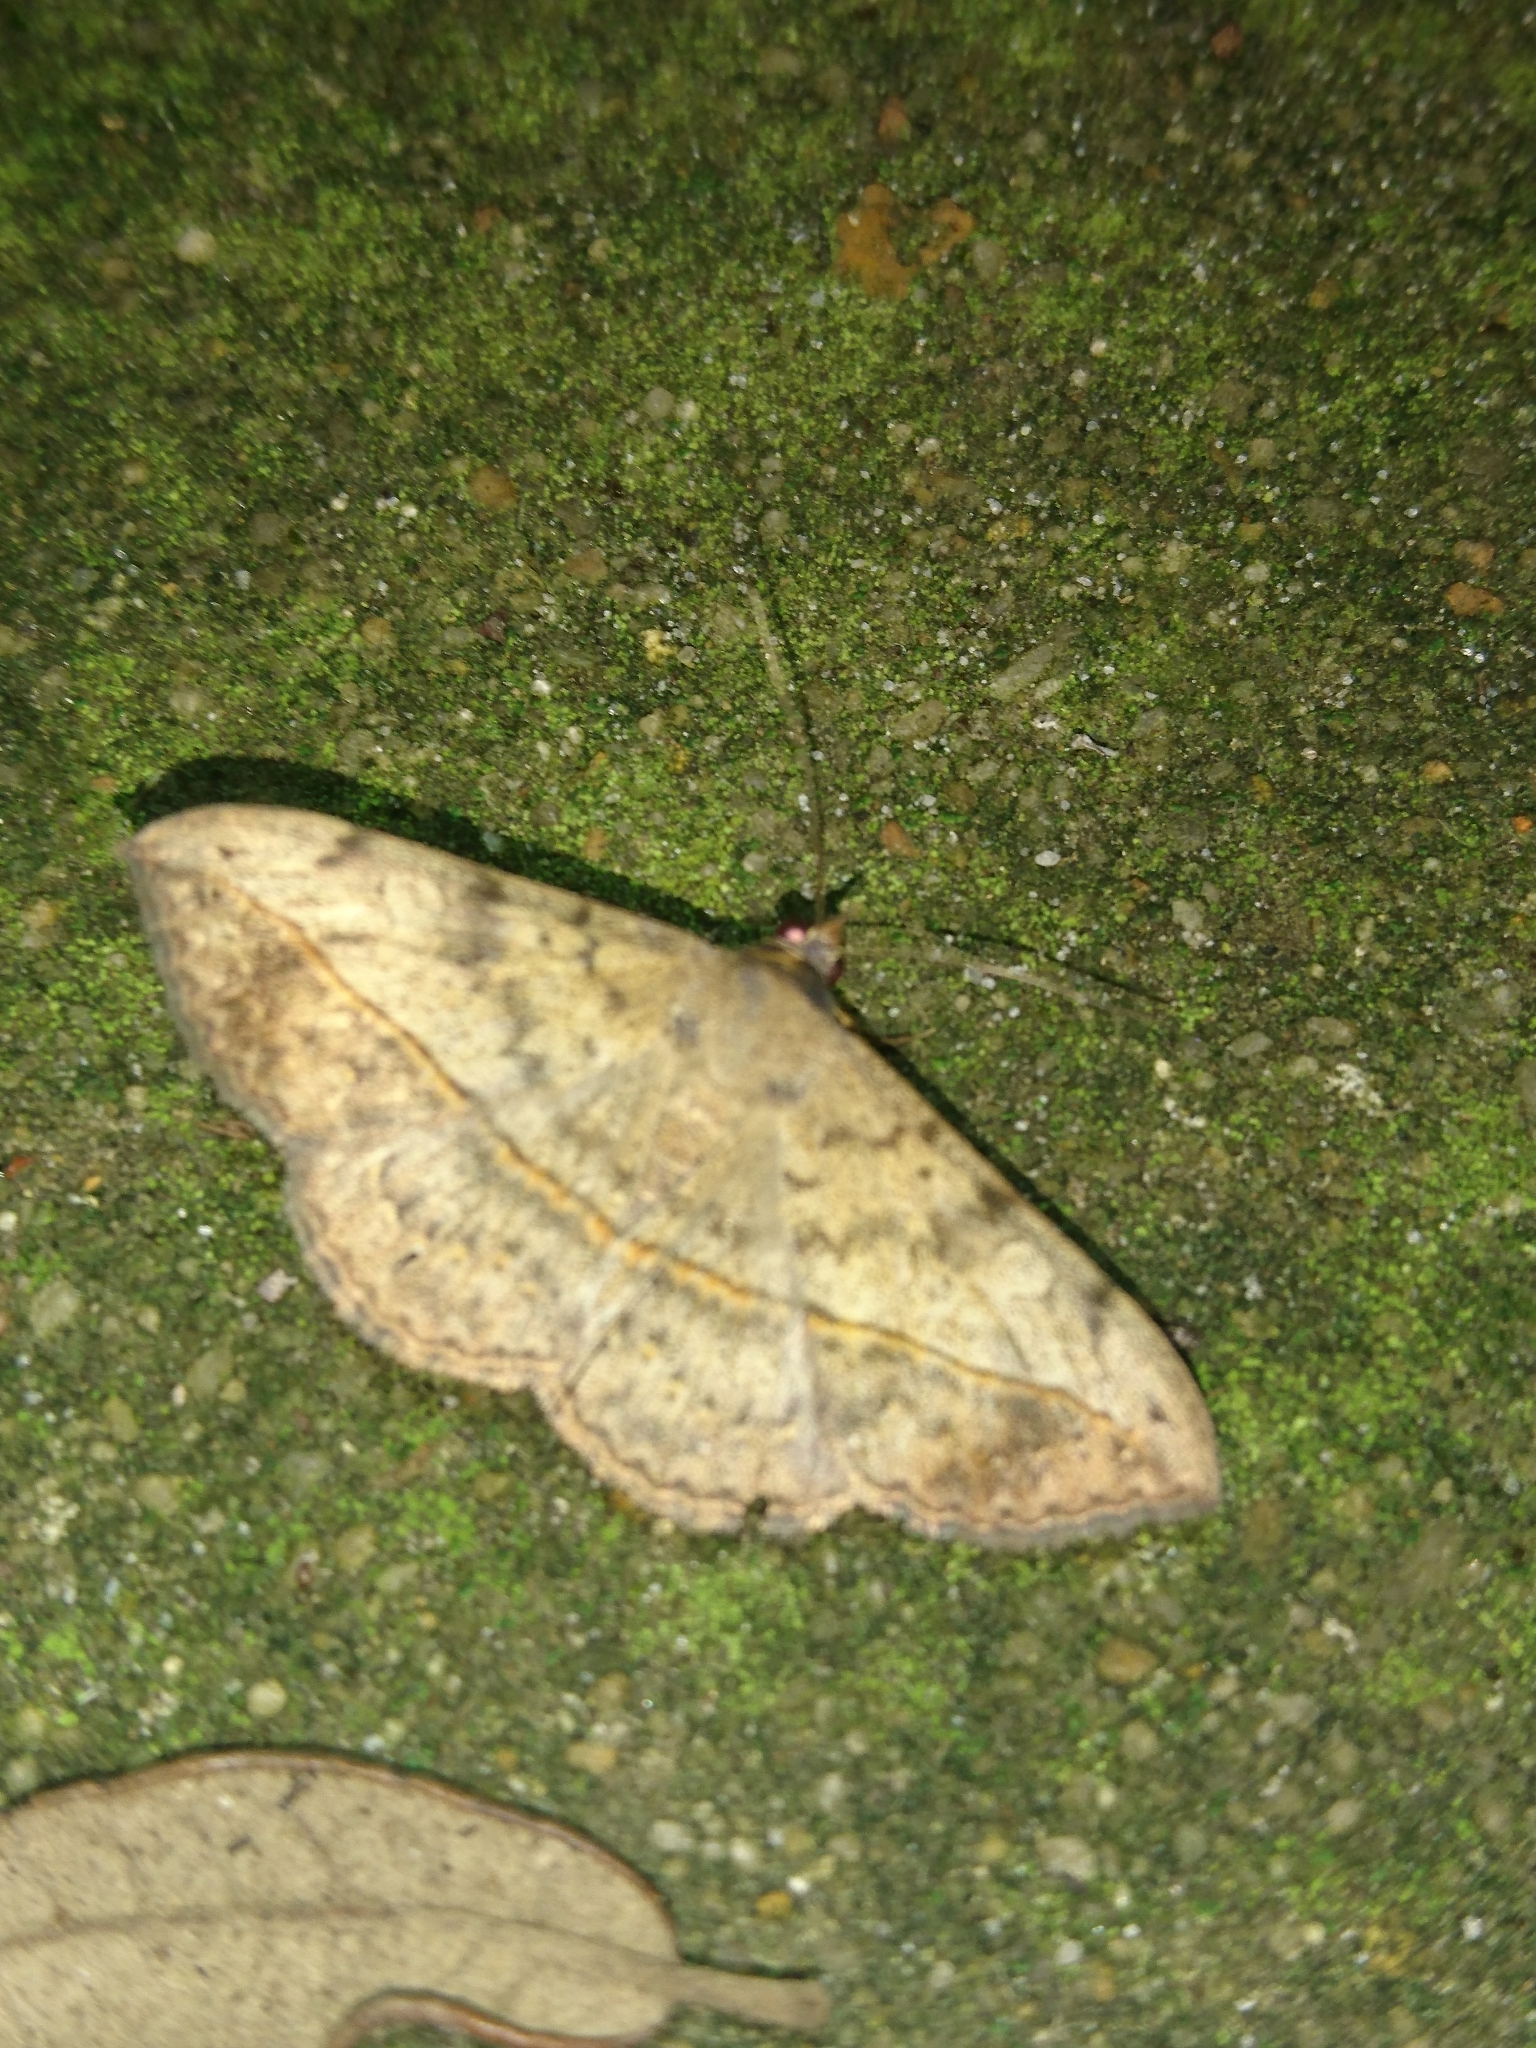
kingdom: Animalia
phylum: Arthropoda
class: Insecta
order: Lepidoptera
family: Erebidae
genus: Anticarsia
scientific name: Anticarsia gemmatalis
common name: Cutworm moth
